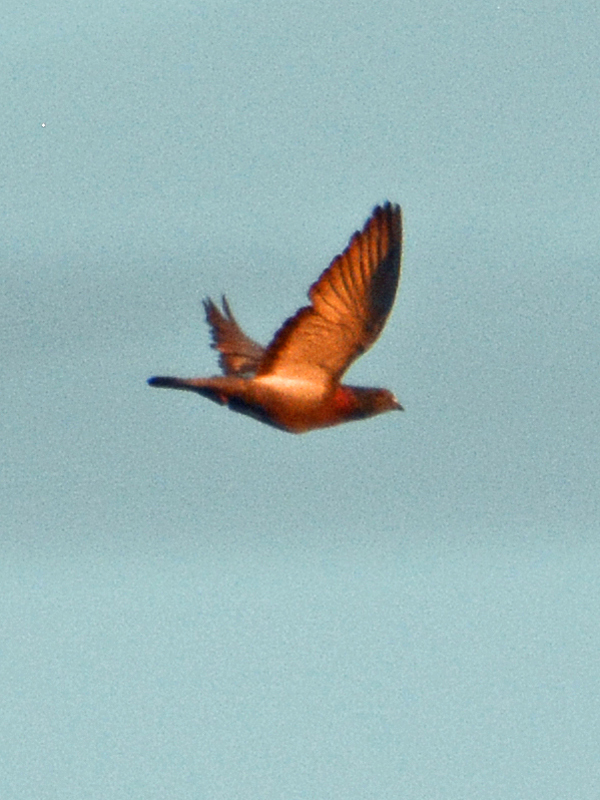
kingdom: Animalia
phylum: Chordata
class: Aves
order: Columbiformes
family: Columbidae
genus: Columba
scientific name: Columba livia
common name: Rock pigeon
